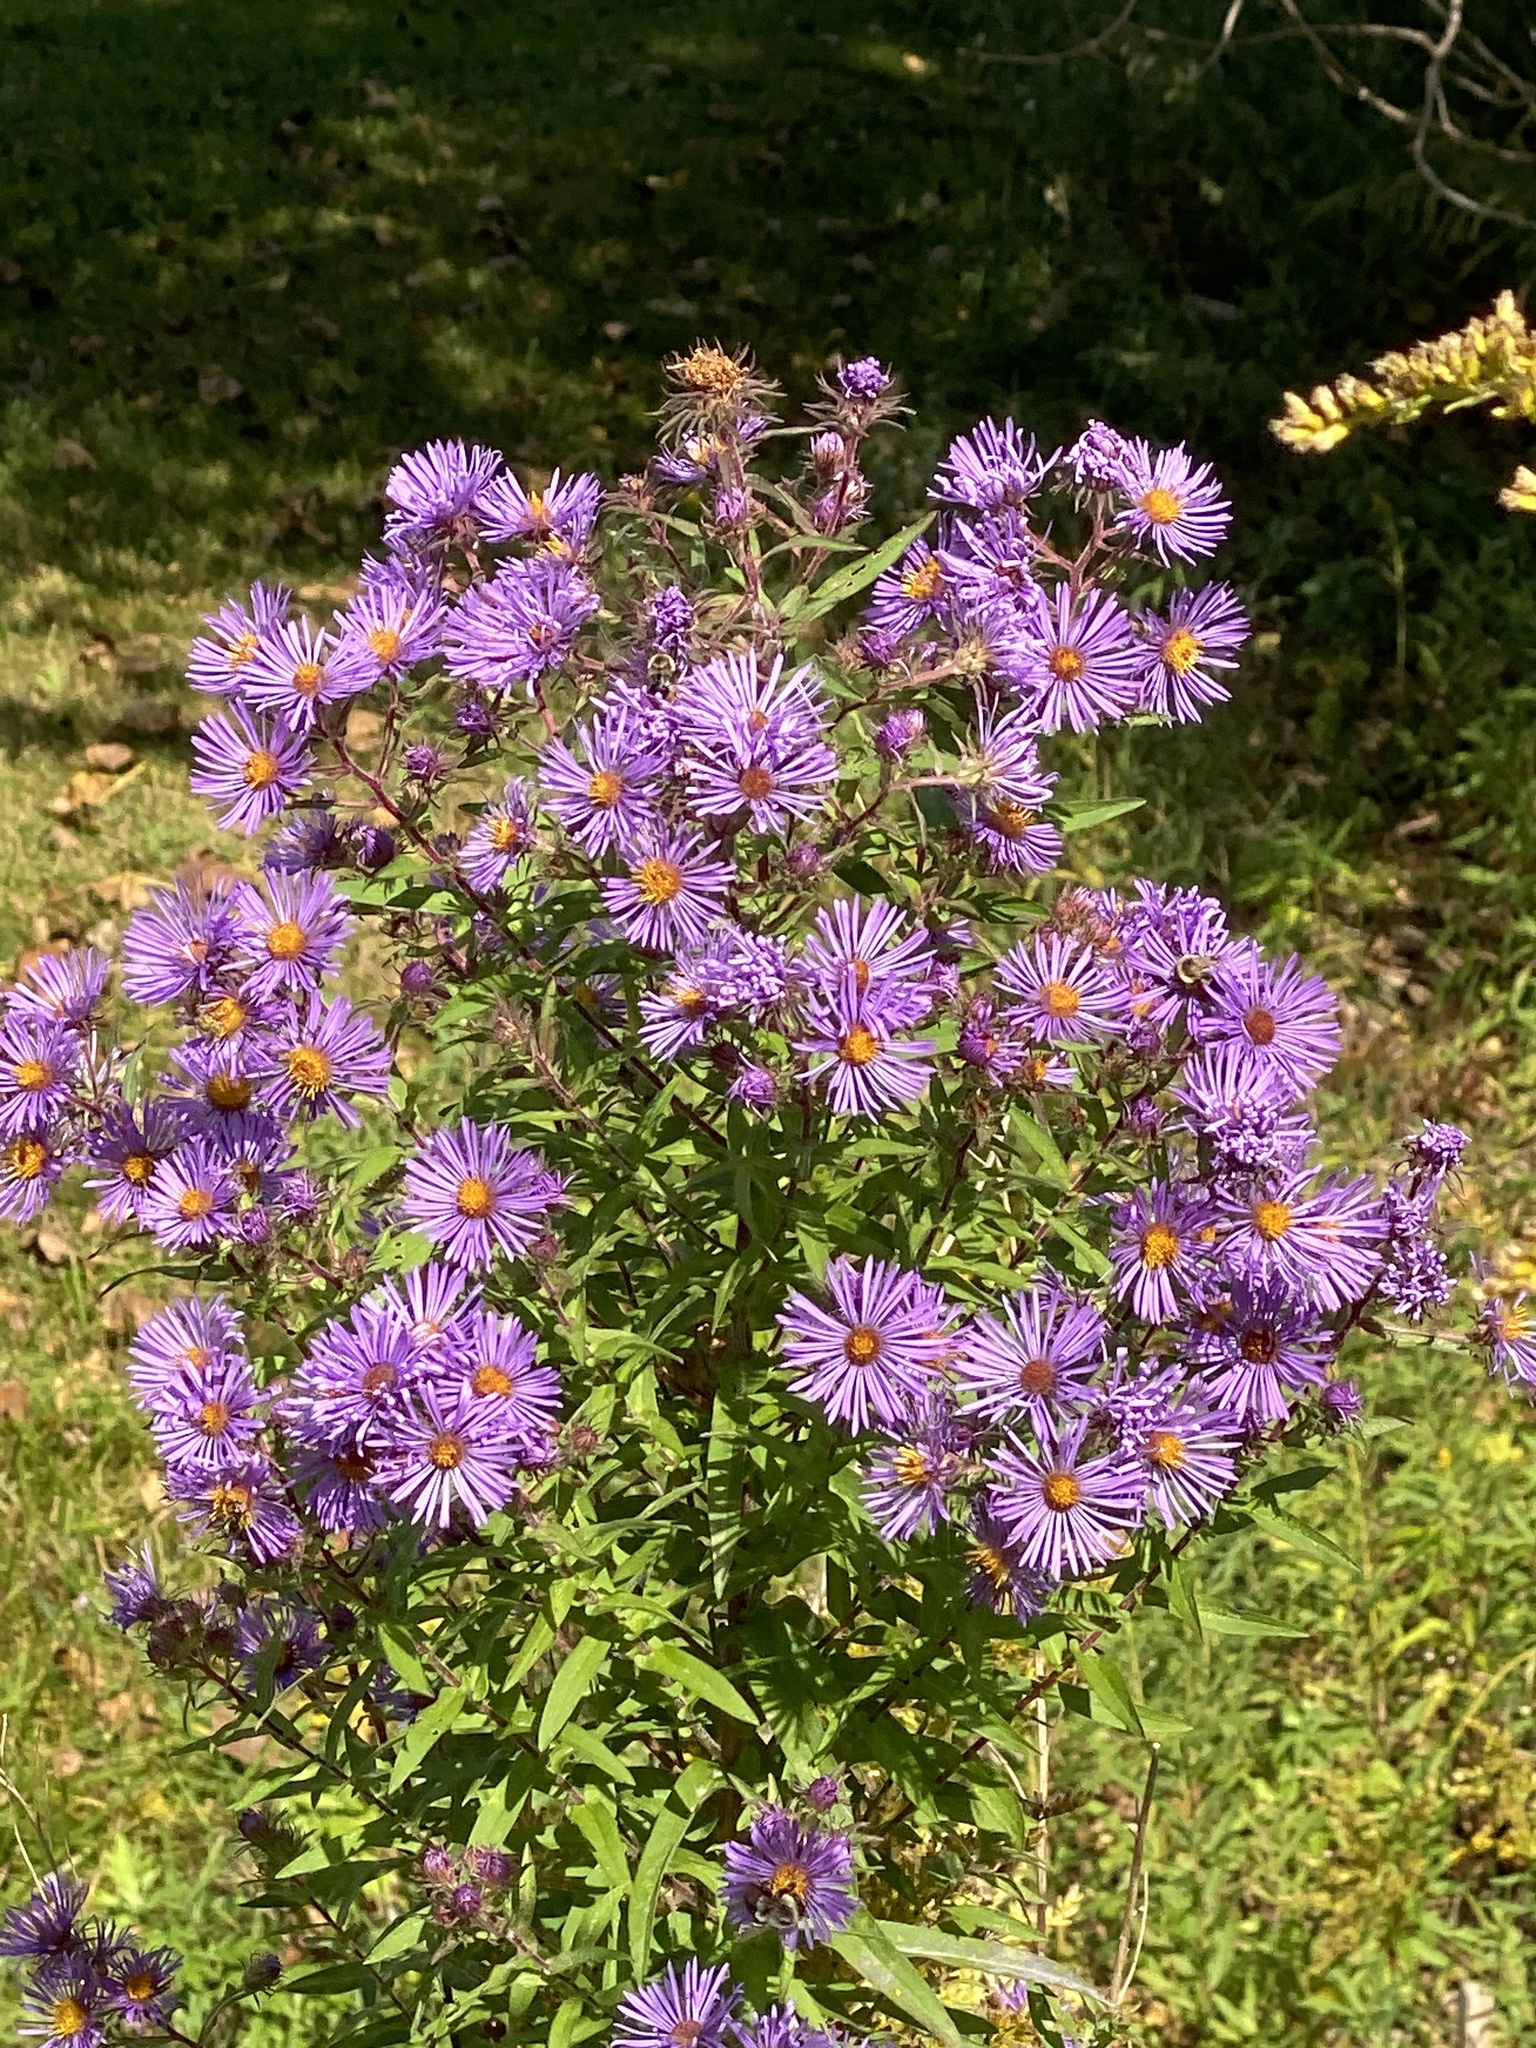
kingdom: Plantae
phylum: Tracheophyta
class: Magnoliopsida
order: Asterales
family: Asteraceae
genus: Symphyotrichum
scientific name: Symphyotrichum novae-angliae
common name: Michaelmas daisy
